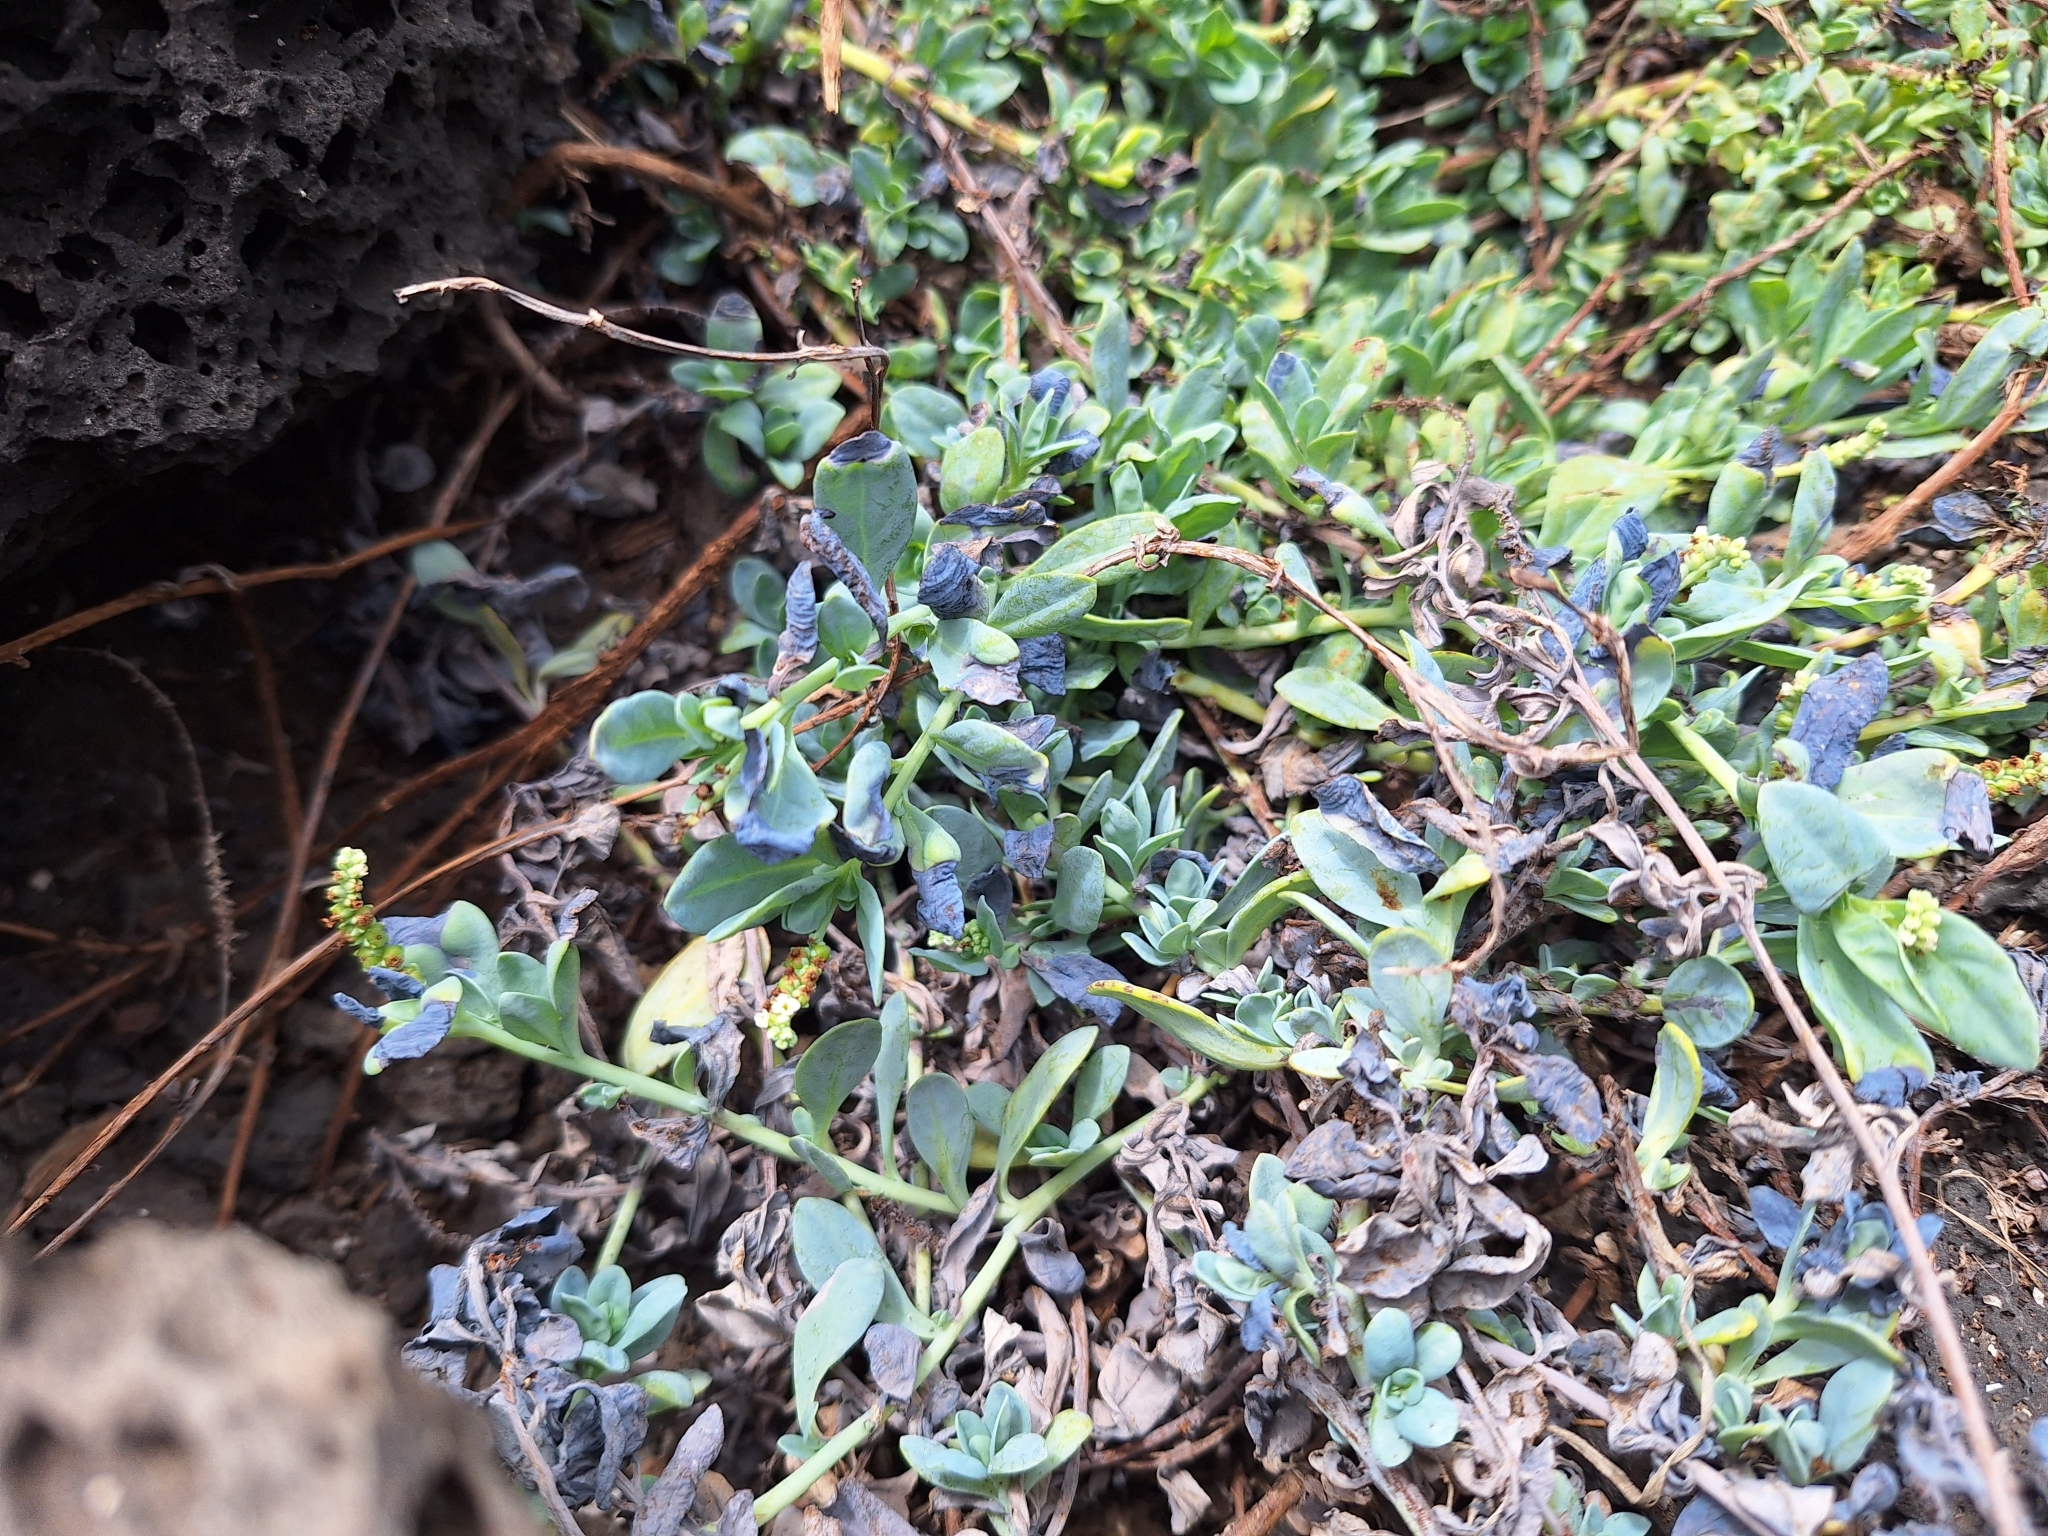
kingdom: Plantae
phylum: Tracheophyta
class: Magnoliopsida
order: Boraginales
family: Heliotropiaceae
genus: Heliotropium
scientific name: Heliotropium curassavicum
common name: Seaside heliotrope
